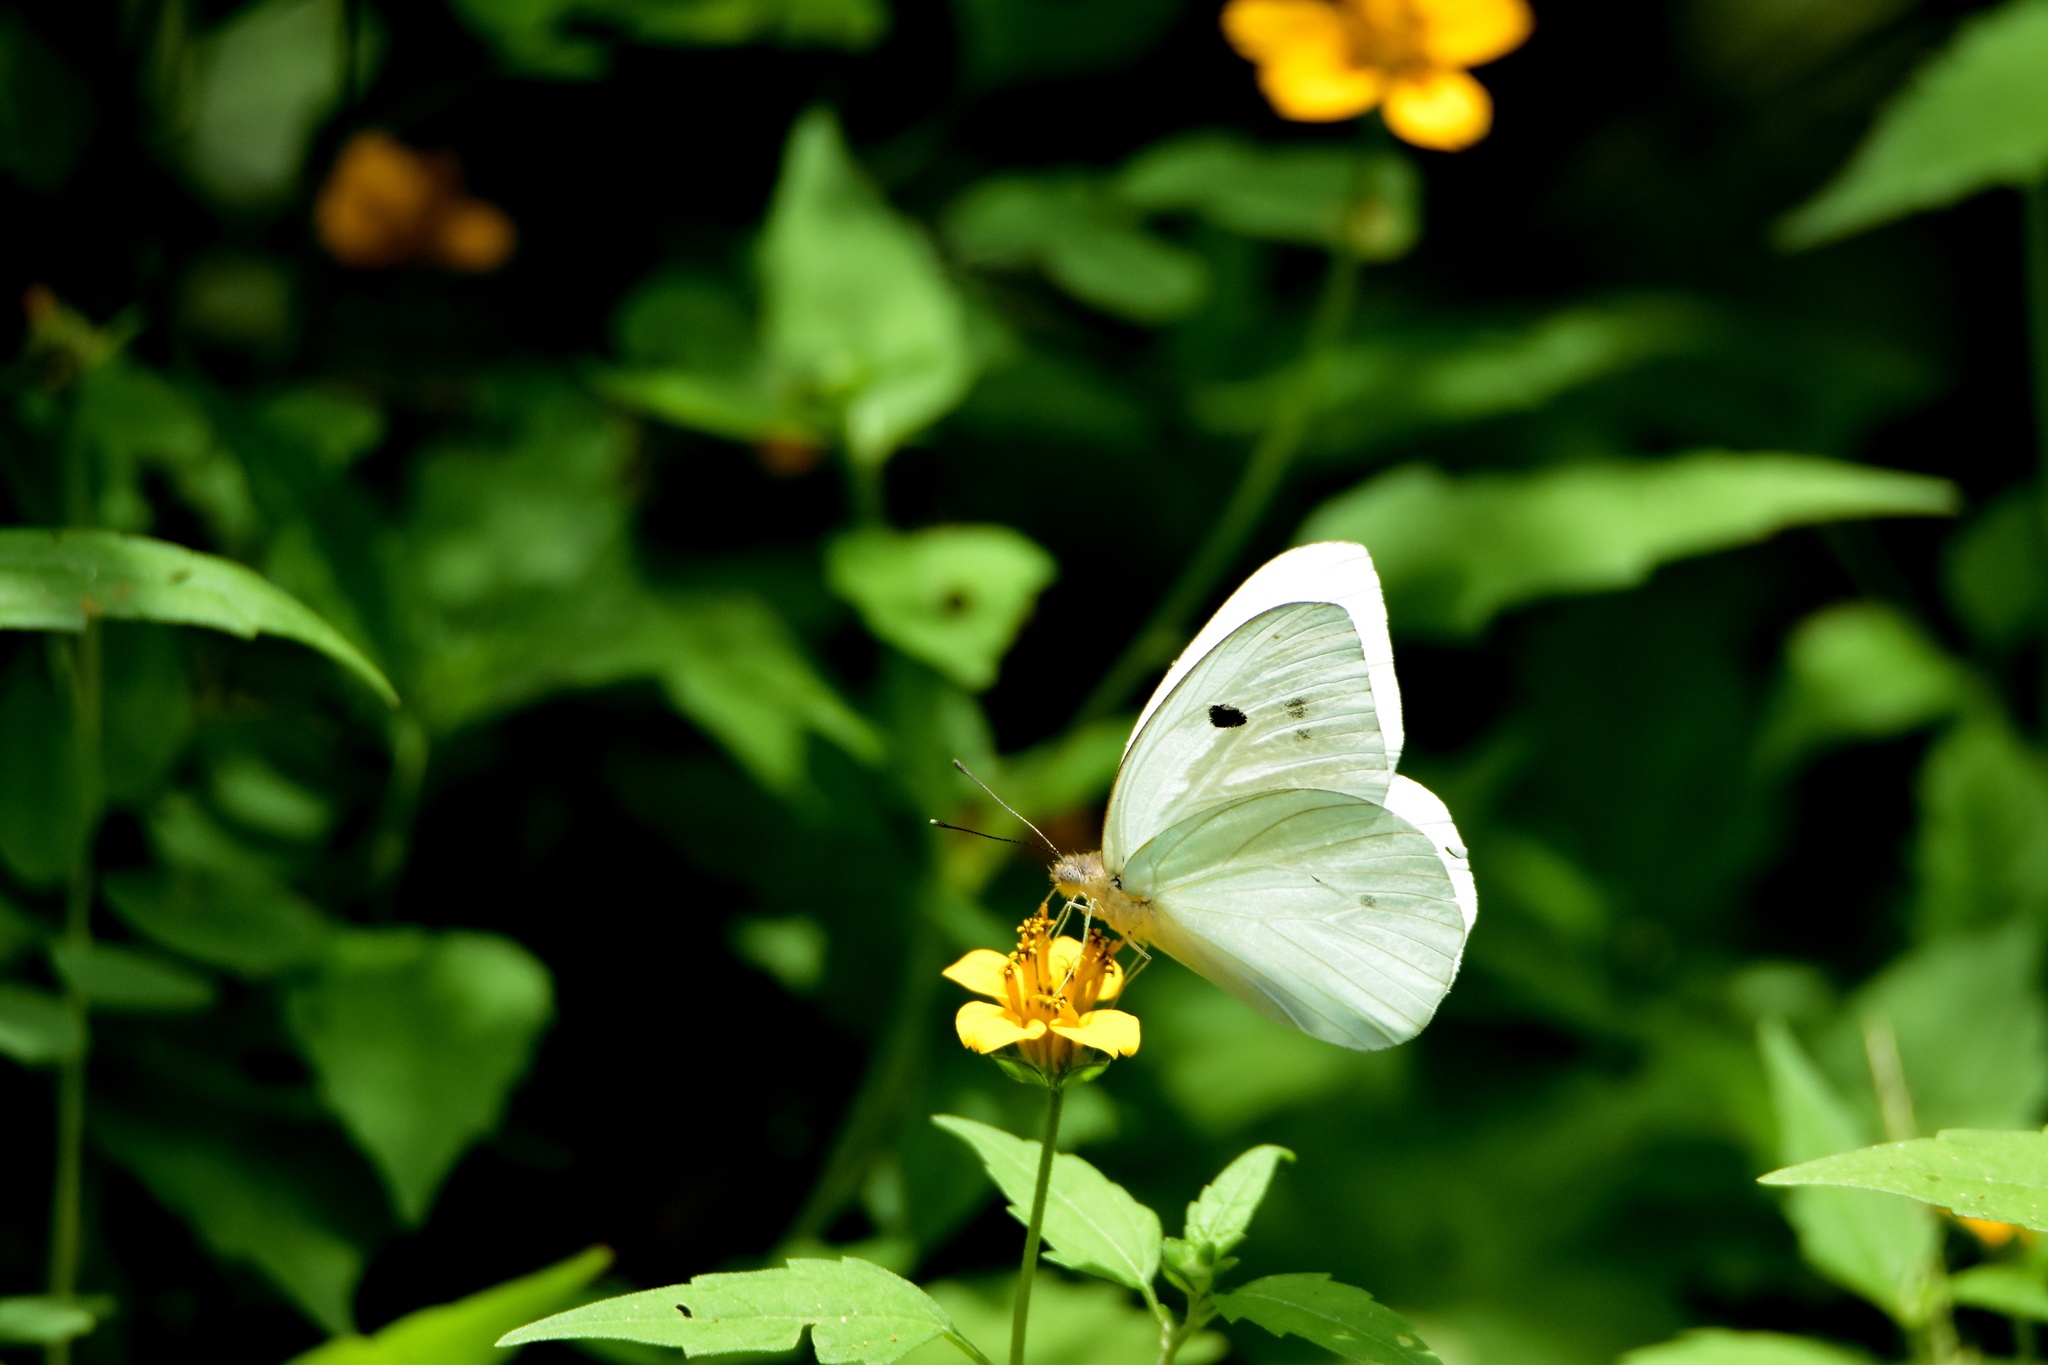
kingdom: Animalia
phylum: Arthropoda
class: Insecta
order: Lepidoptera
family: Pieridae
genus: Ganyra
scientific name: Ganyra josephina
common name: Giant white
